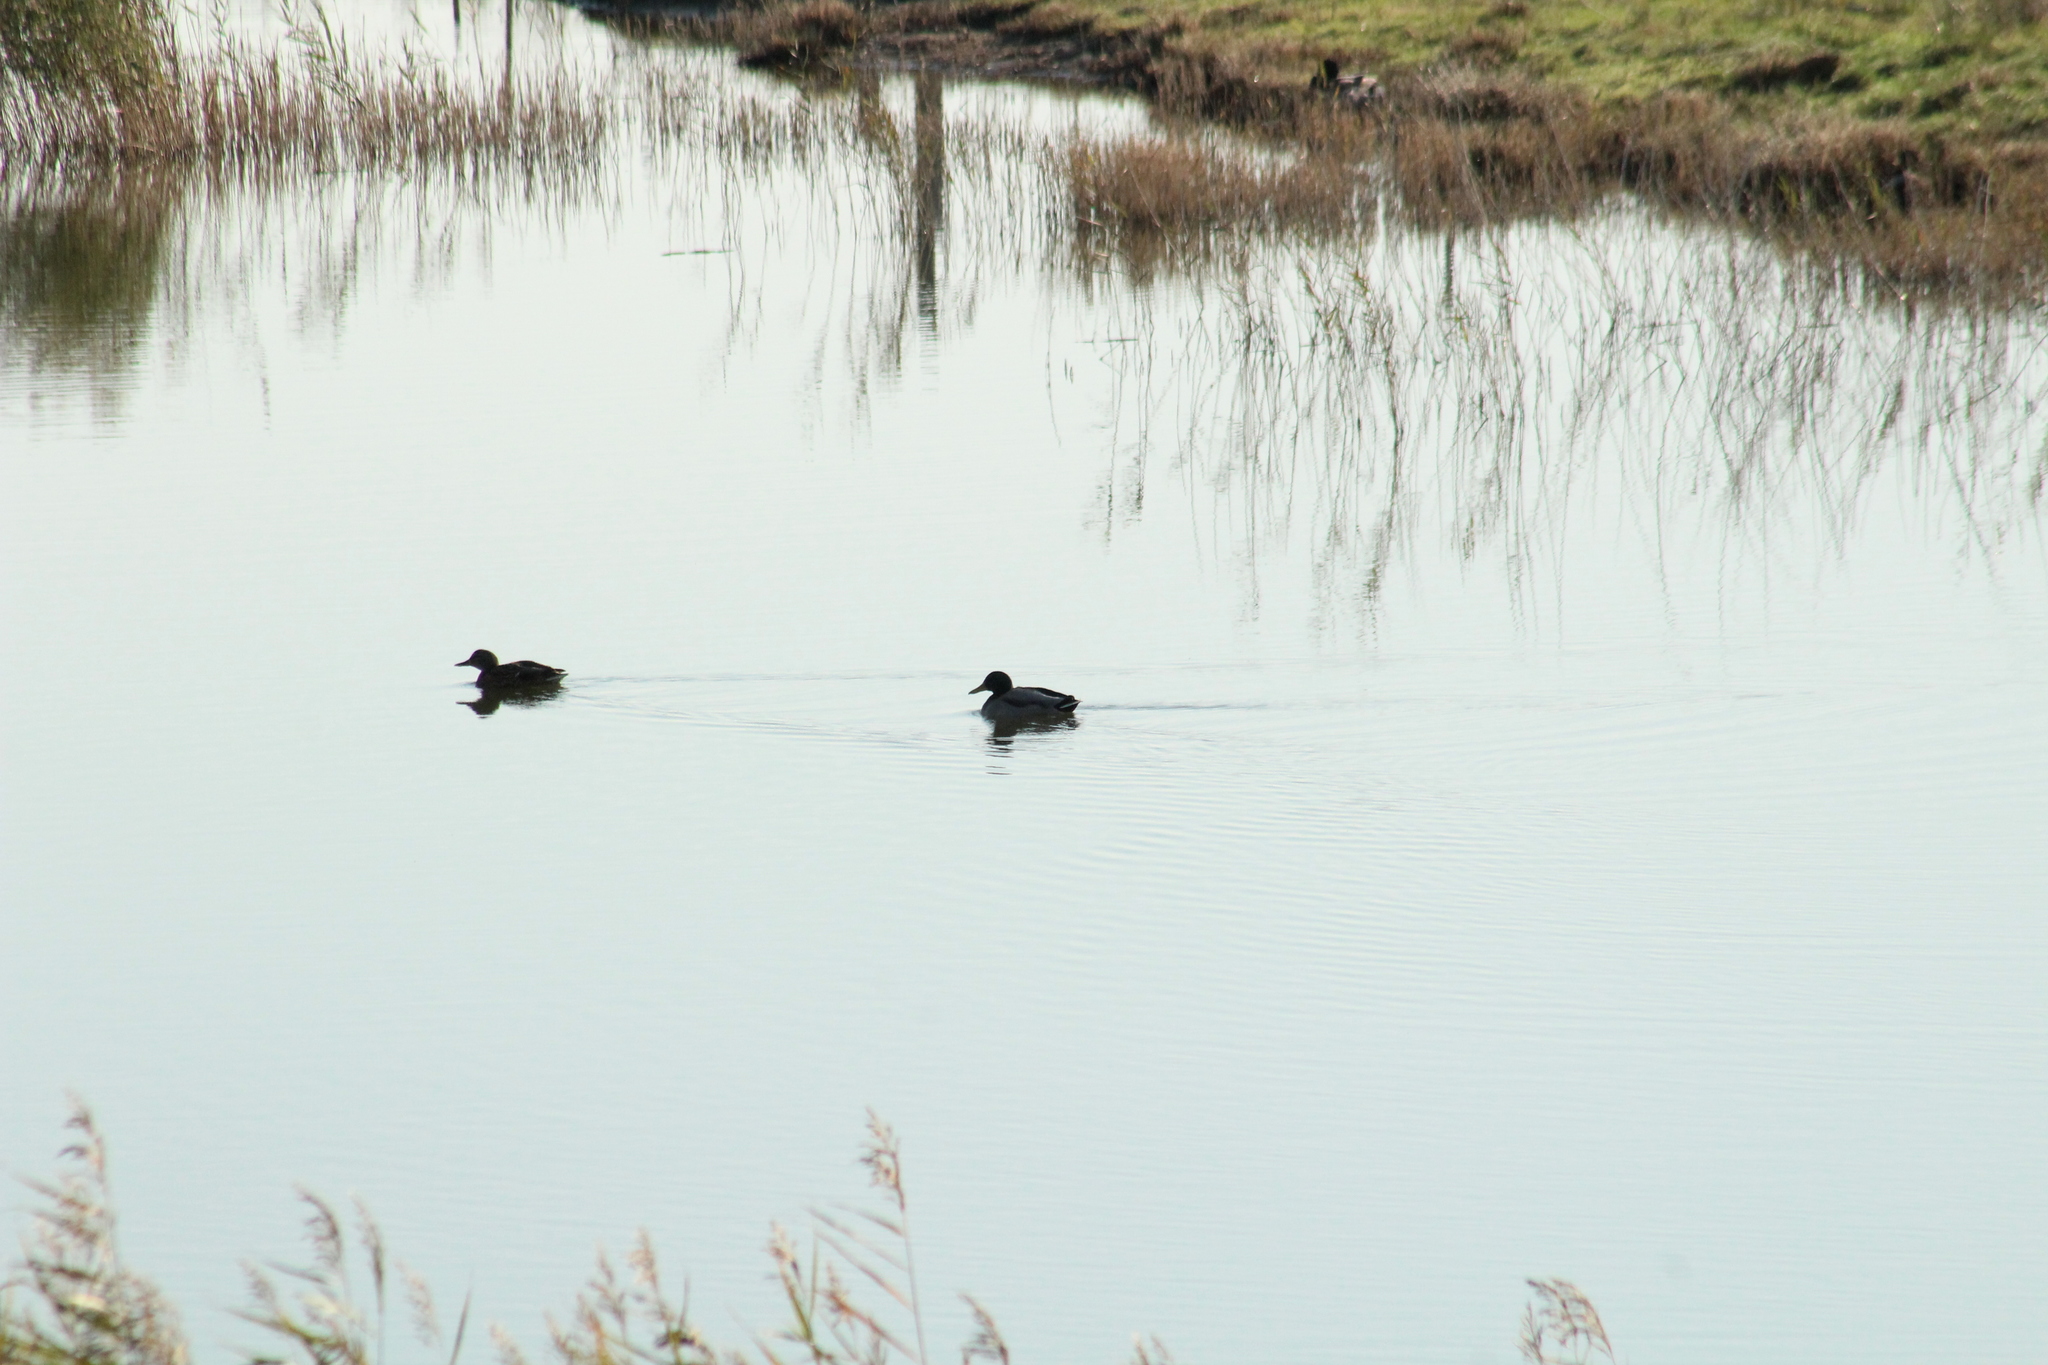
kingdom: Animalia
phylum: Chordata
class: Aves
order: Anseriformes
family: Anatidae
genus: Anas
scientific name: Anas platyrhynchos
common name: Mallard
